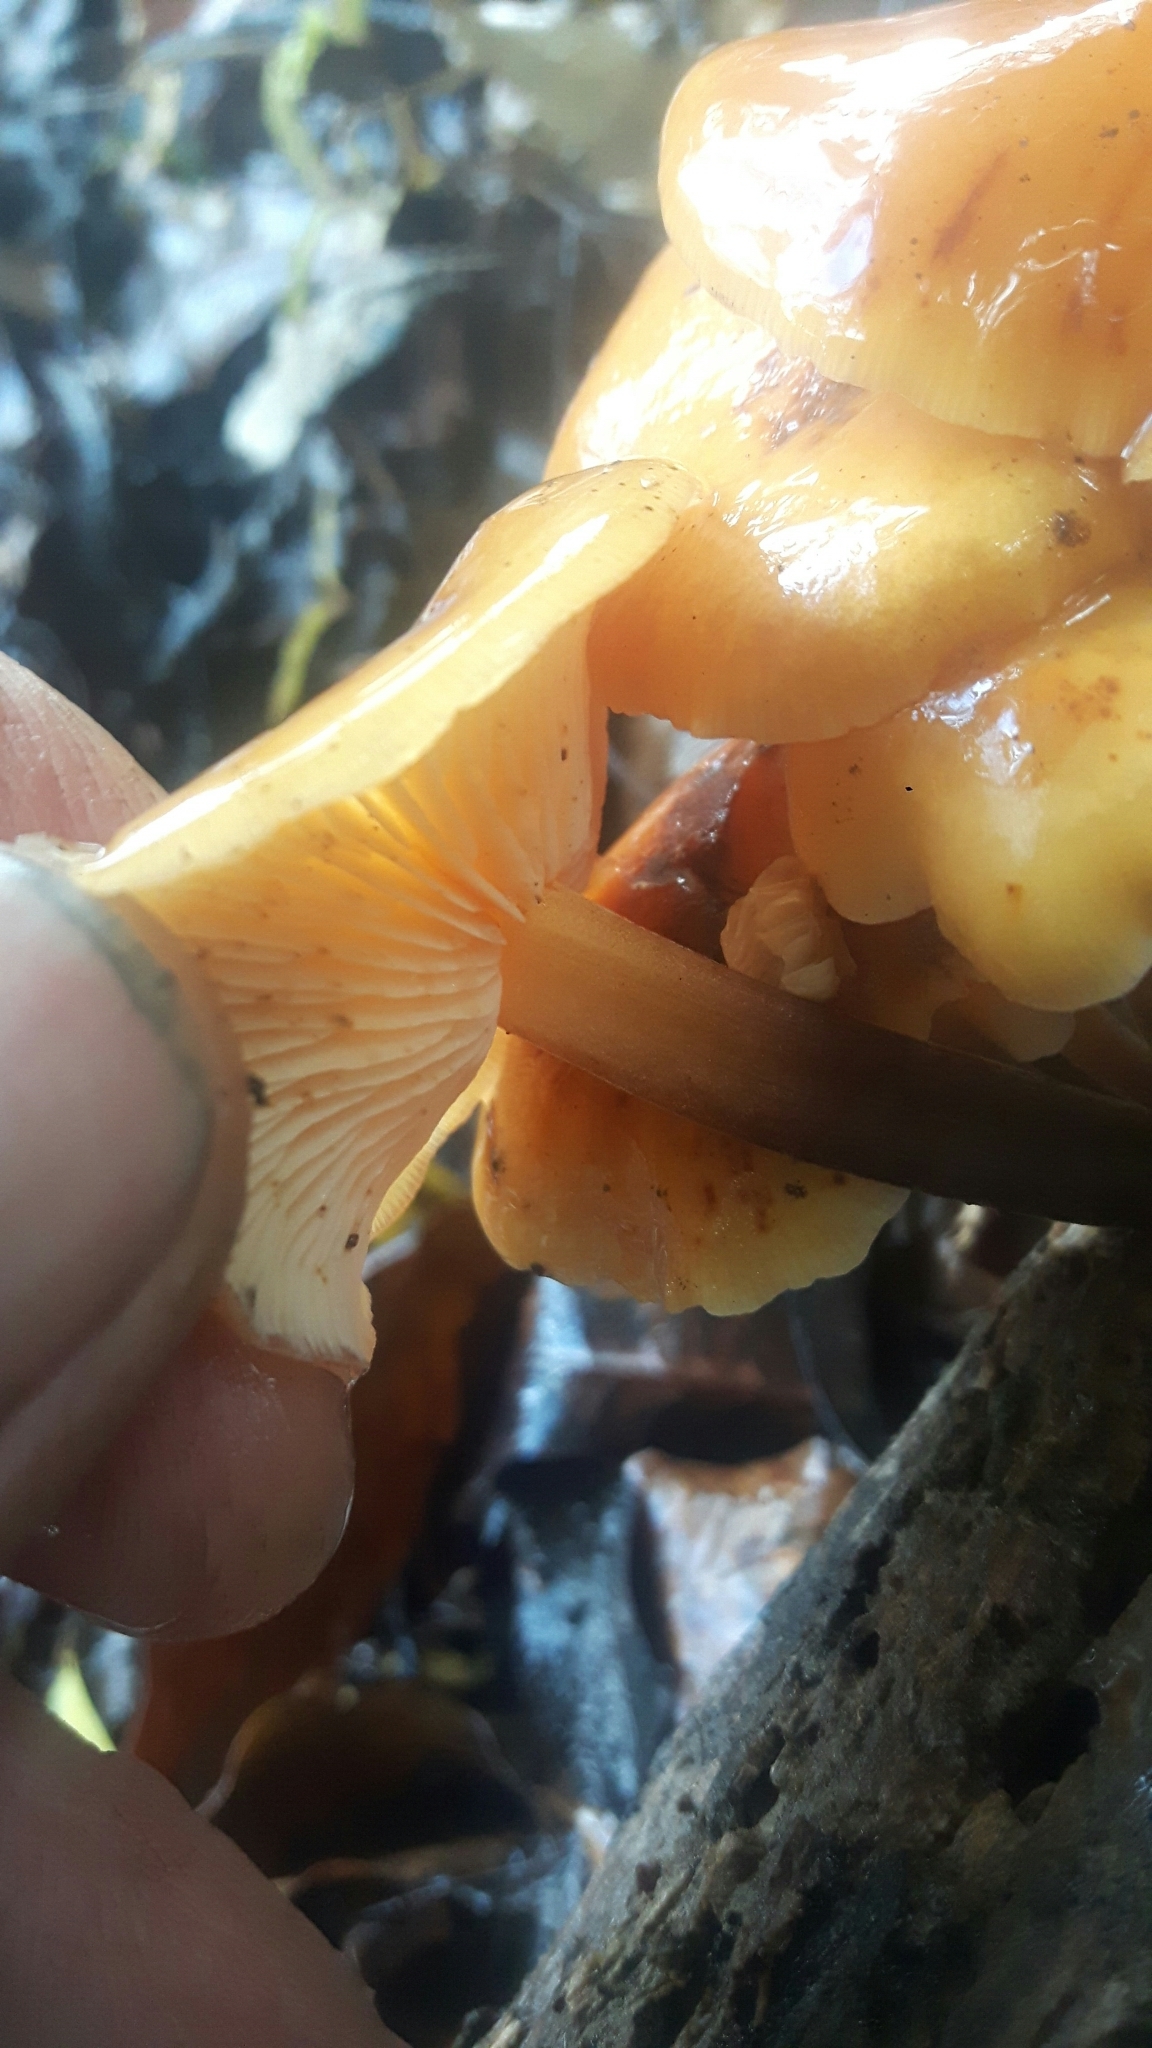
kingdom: Fungi
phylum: Basidiomycota
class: Agaricomycetes
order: Agaricales
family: Physalacriaceae
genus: Flammulina
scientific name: Flammulina velutipes
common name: Velvet shank
